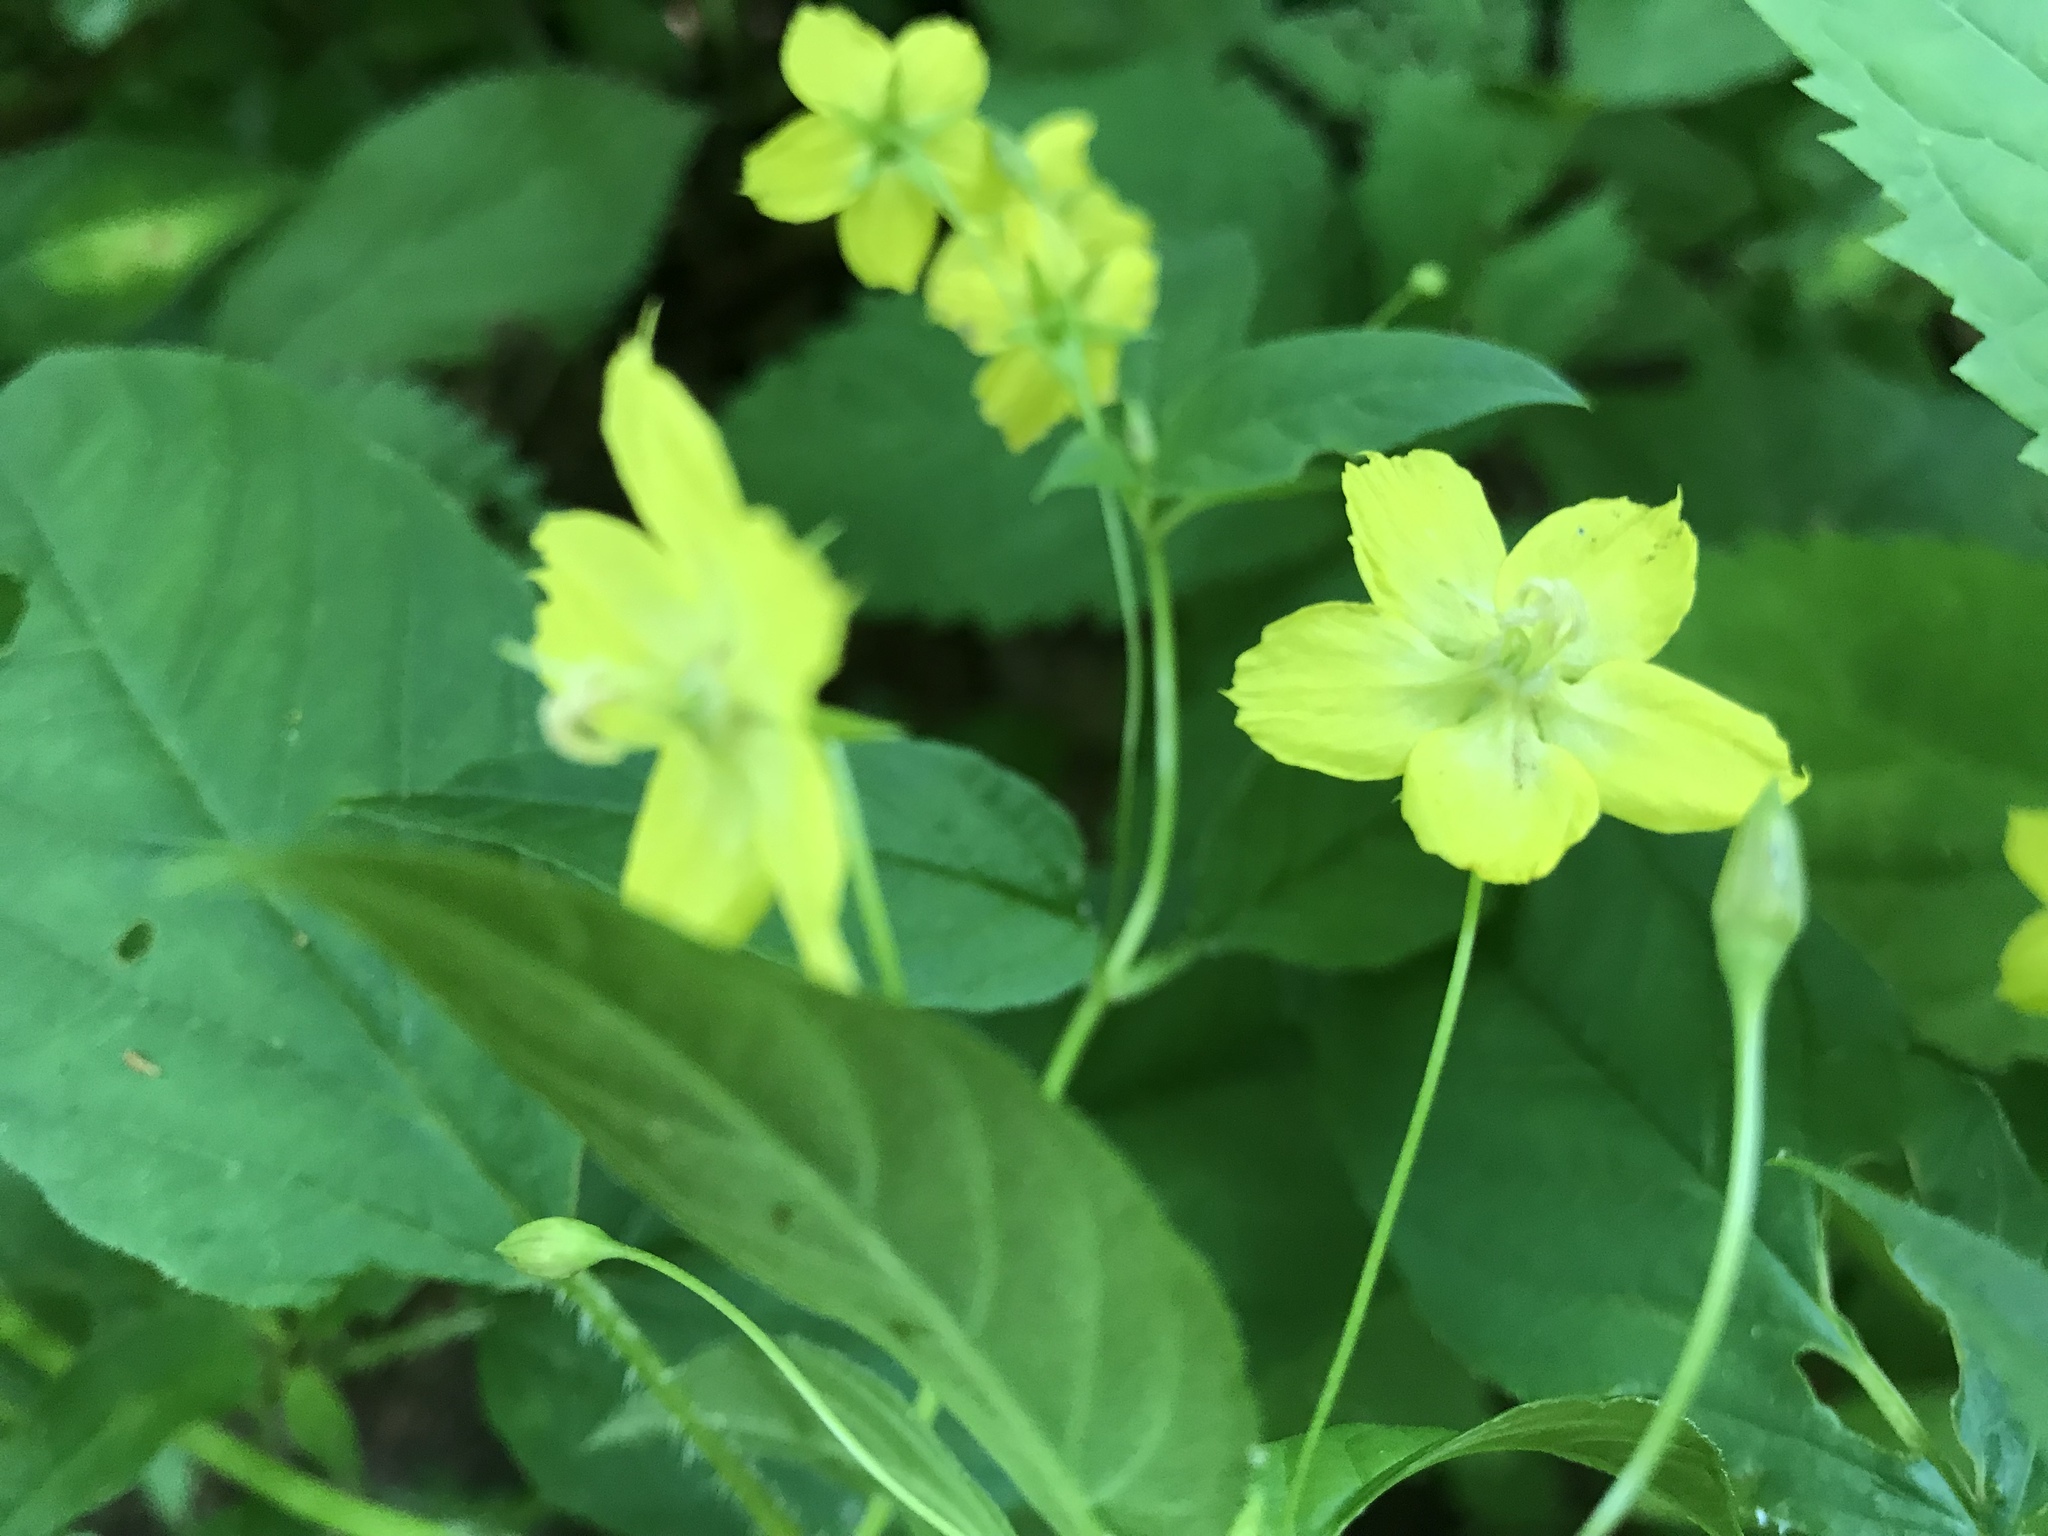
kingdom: Plantae
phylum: Tracheophyta
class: Magnoliopsida
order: Ericales
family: Primulaceae
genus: Lysimachia
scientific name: Lysimachia ciliata
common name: Fringed loosestrife
